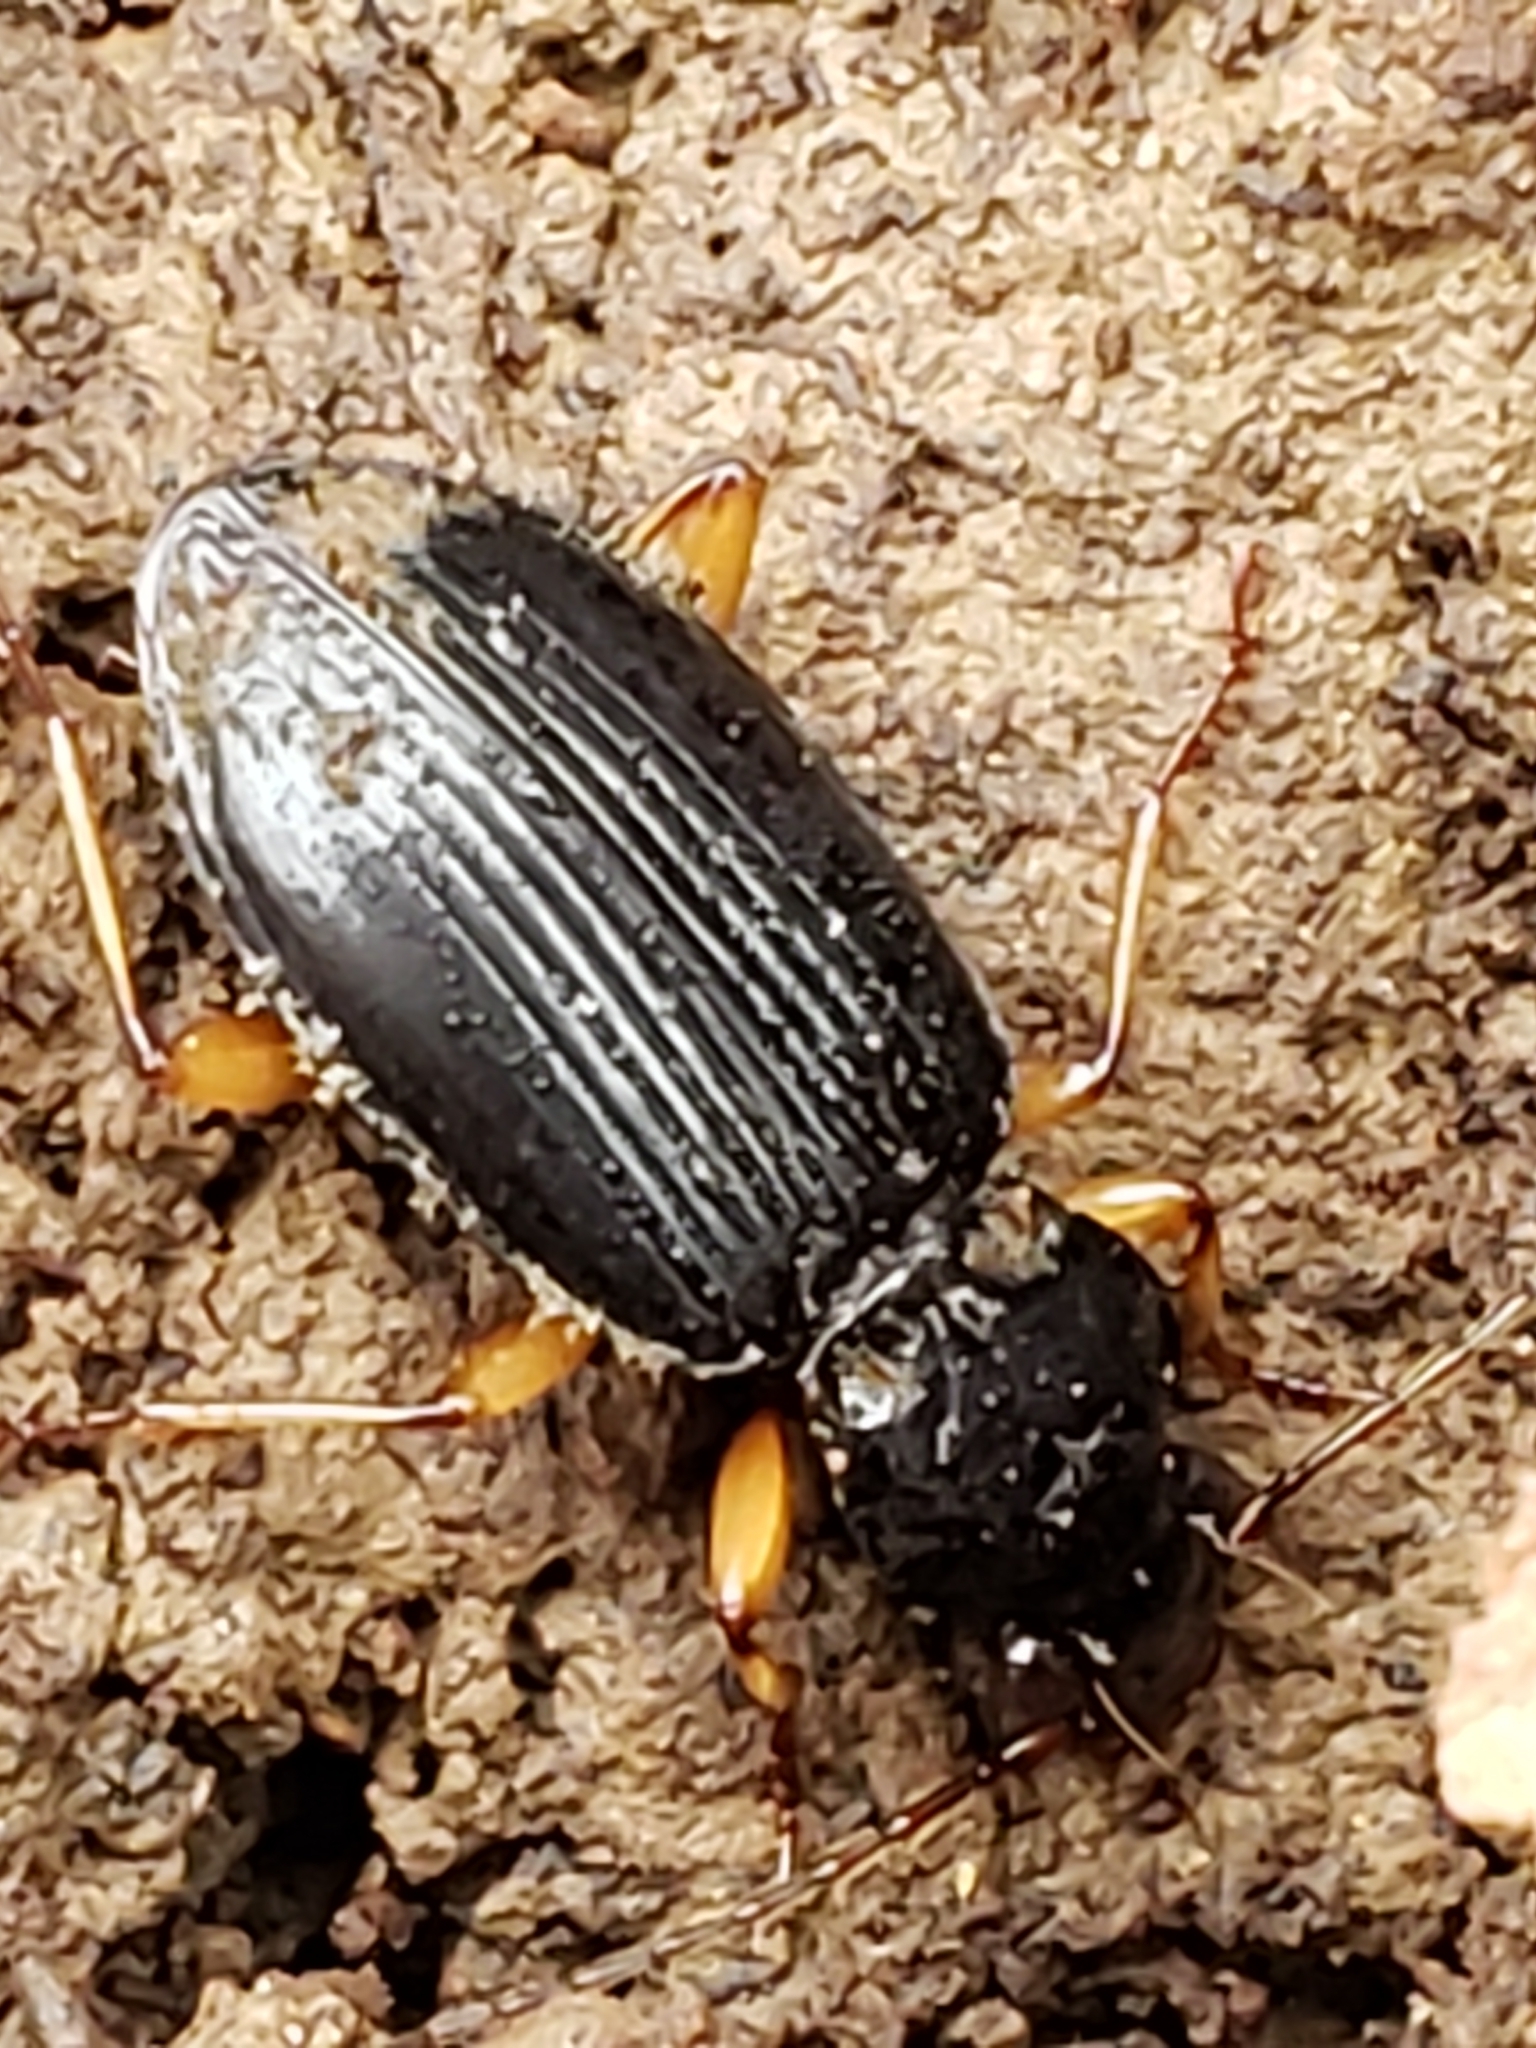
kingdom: Animalia
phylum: Arthropoda
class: Insecta
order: Coleoptera
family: Carabidae
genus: Patrobus
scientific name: Patrobus longicornis
